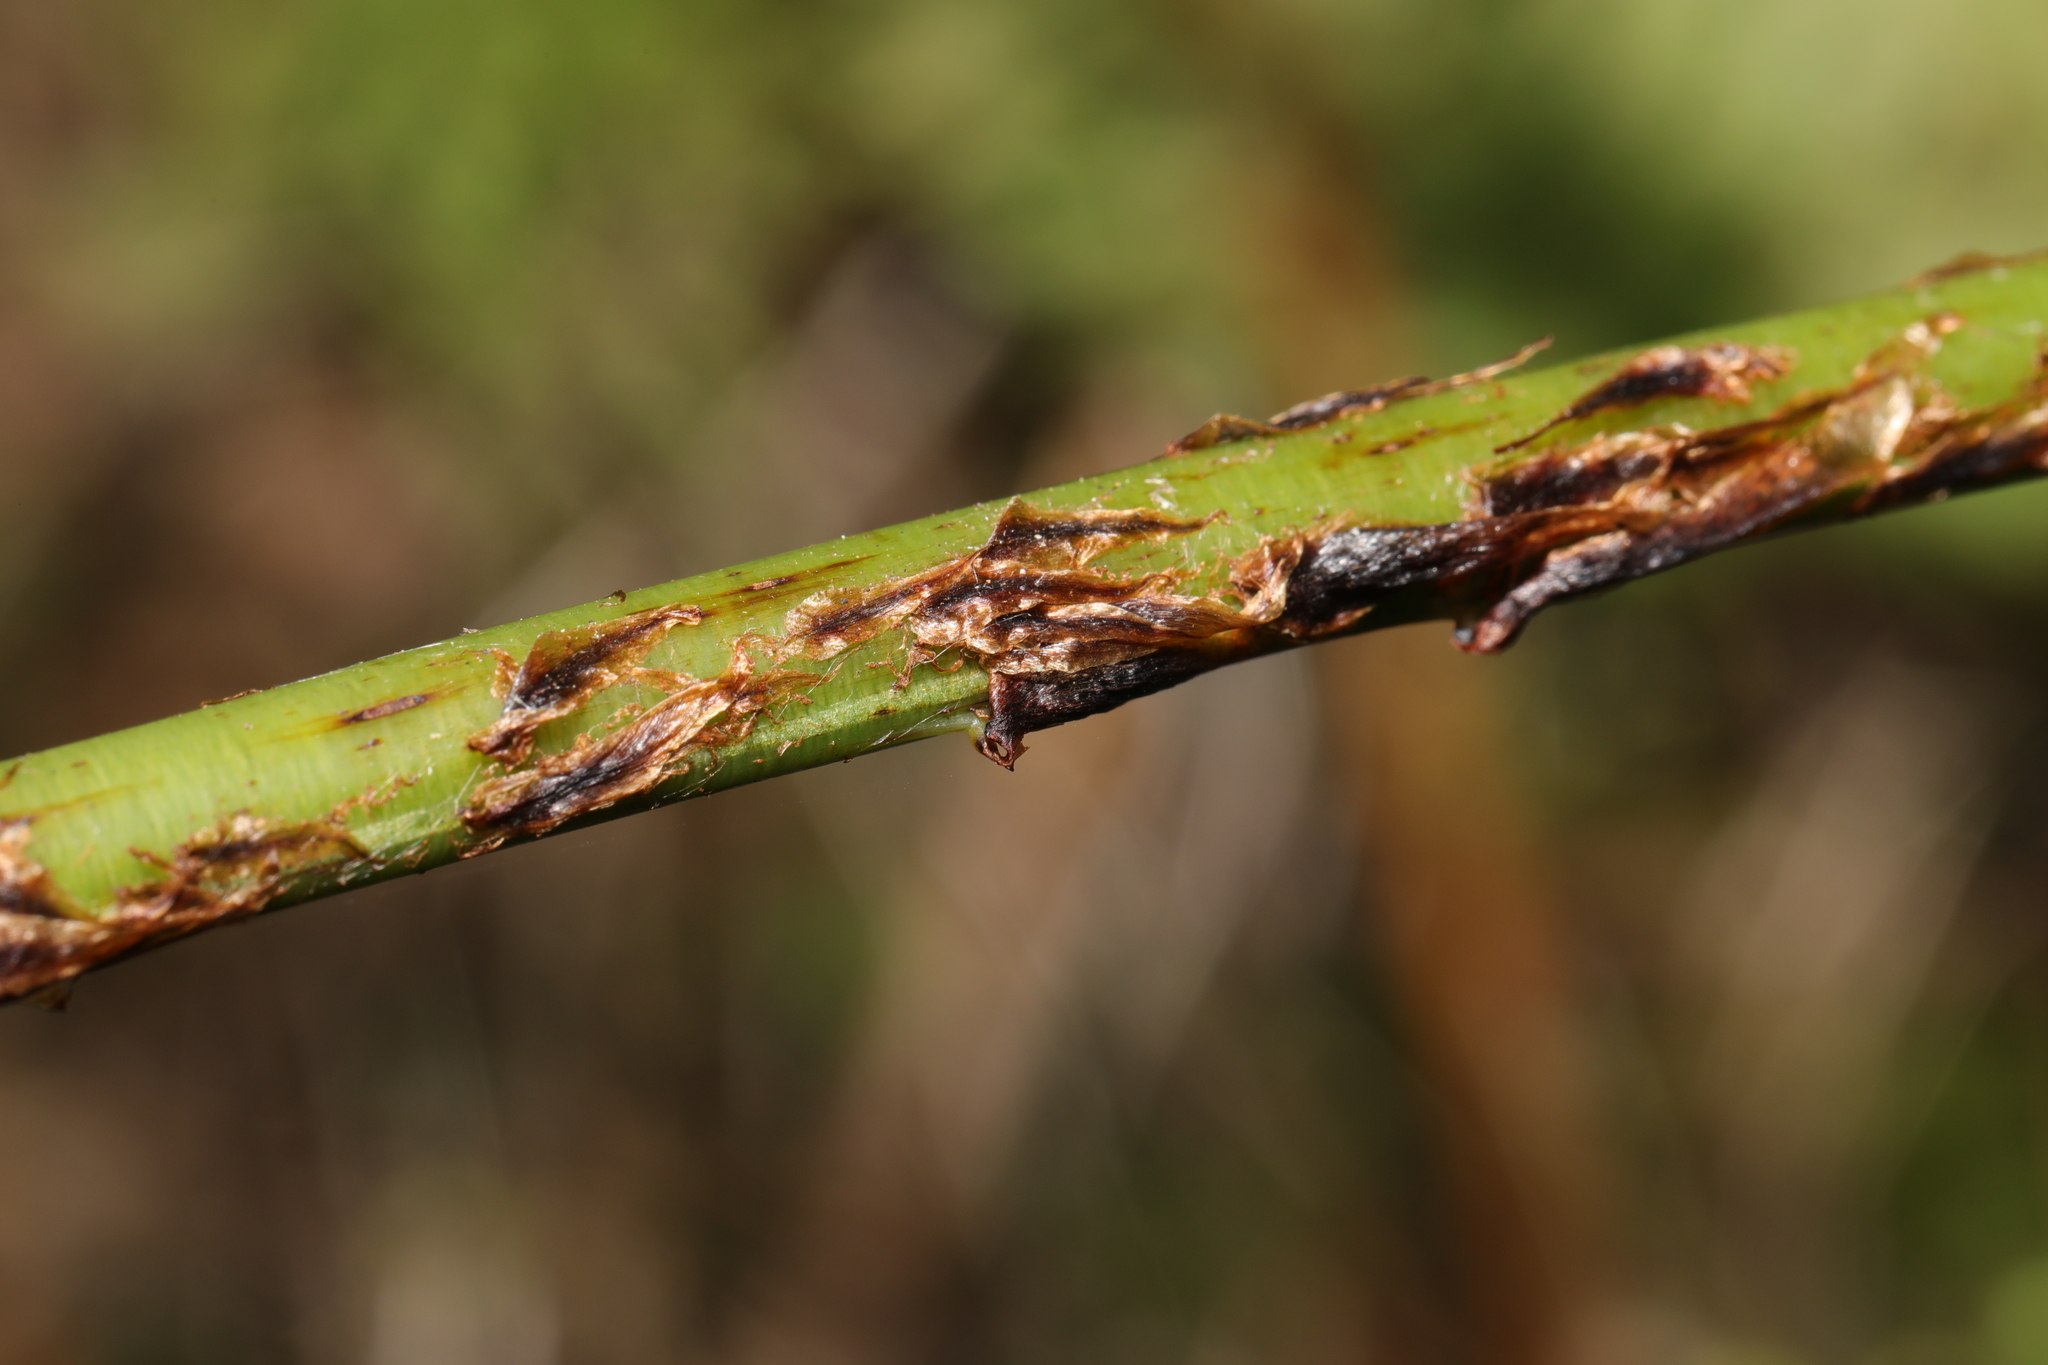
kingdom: Plantae
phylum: Tracheophyta
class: Polypodiopsida
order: Polypodiales
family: Dryopteridaceae
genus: Dryopteris
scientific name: Dryopteris dilatata
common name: Broad buckler-fern
